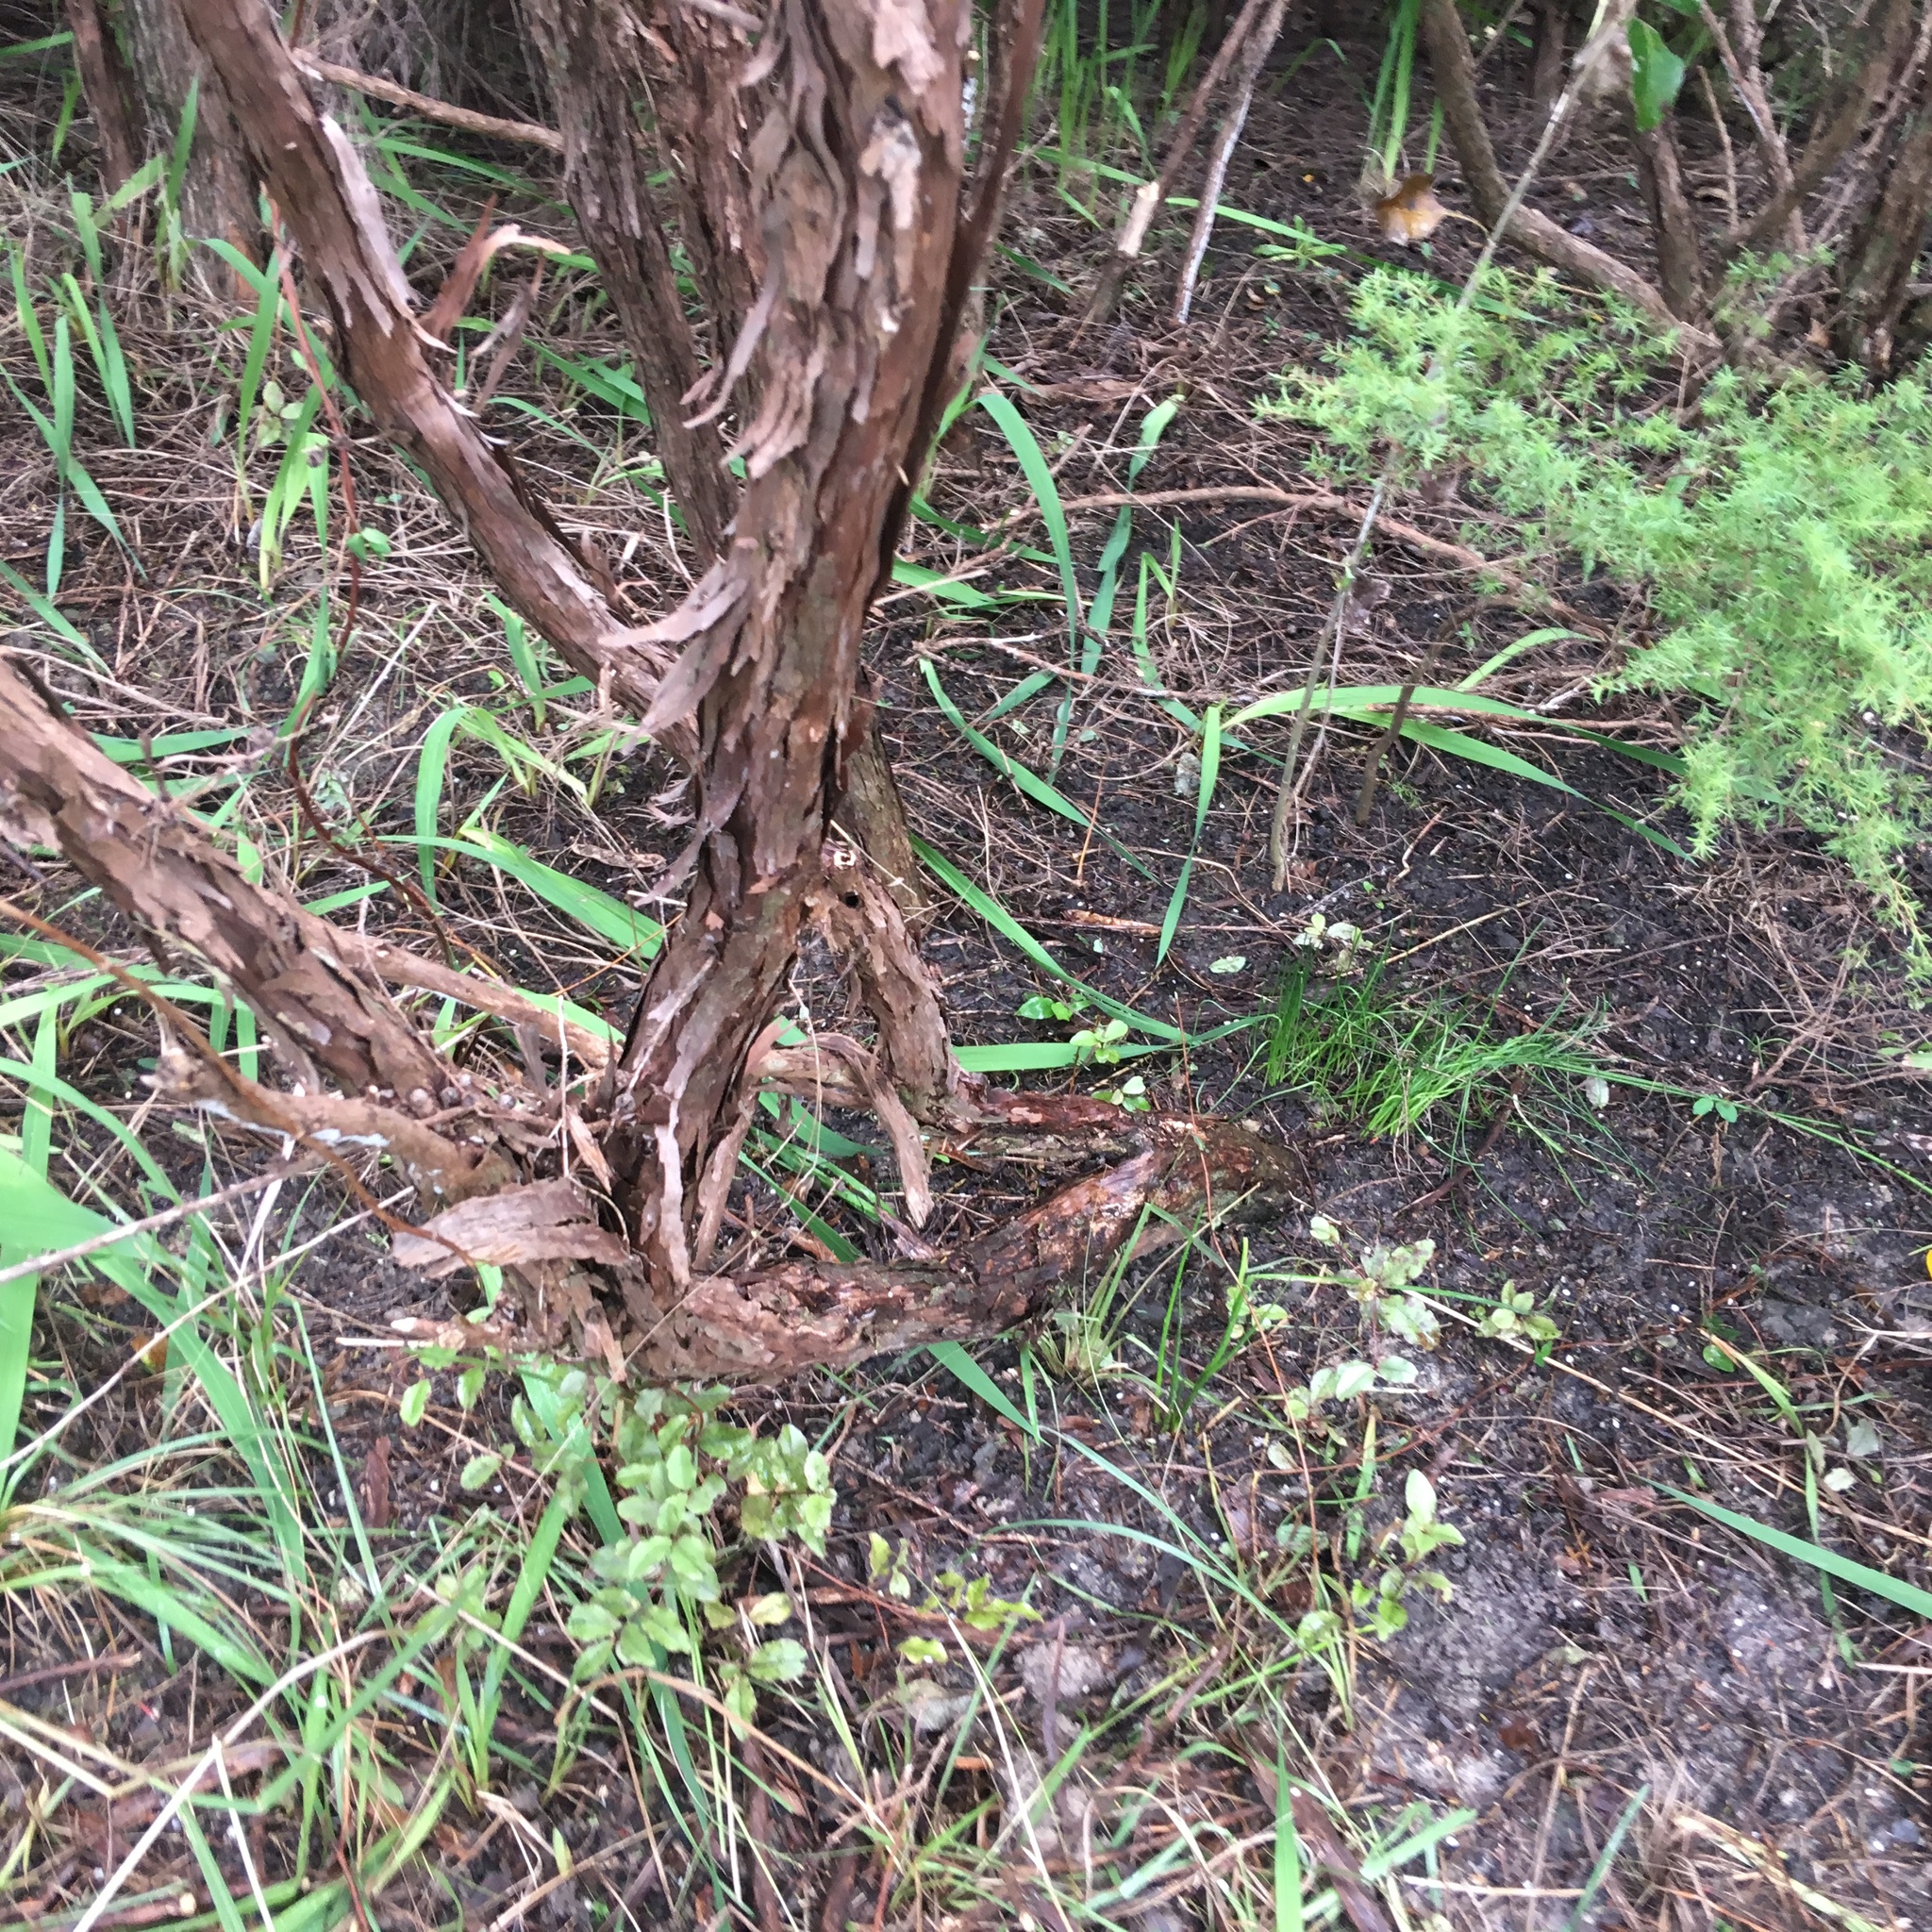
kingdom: Plantae
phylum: Tracheophyta
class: Magnoliopsida
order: Myrtales
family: Myrtaceae
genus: Leptospermum
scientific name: Leptospermum scoparium
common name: Broom tea-tree
